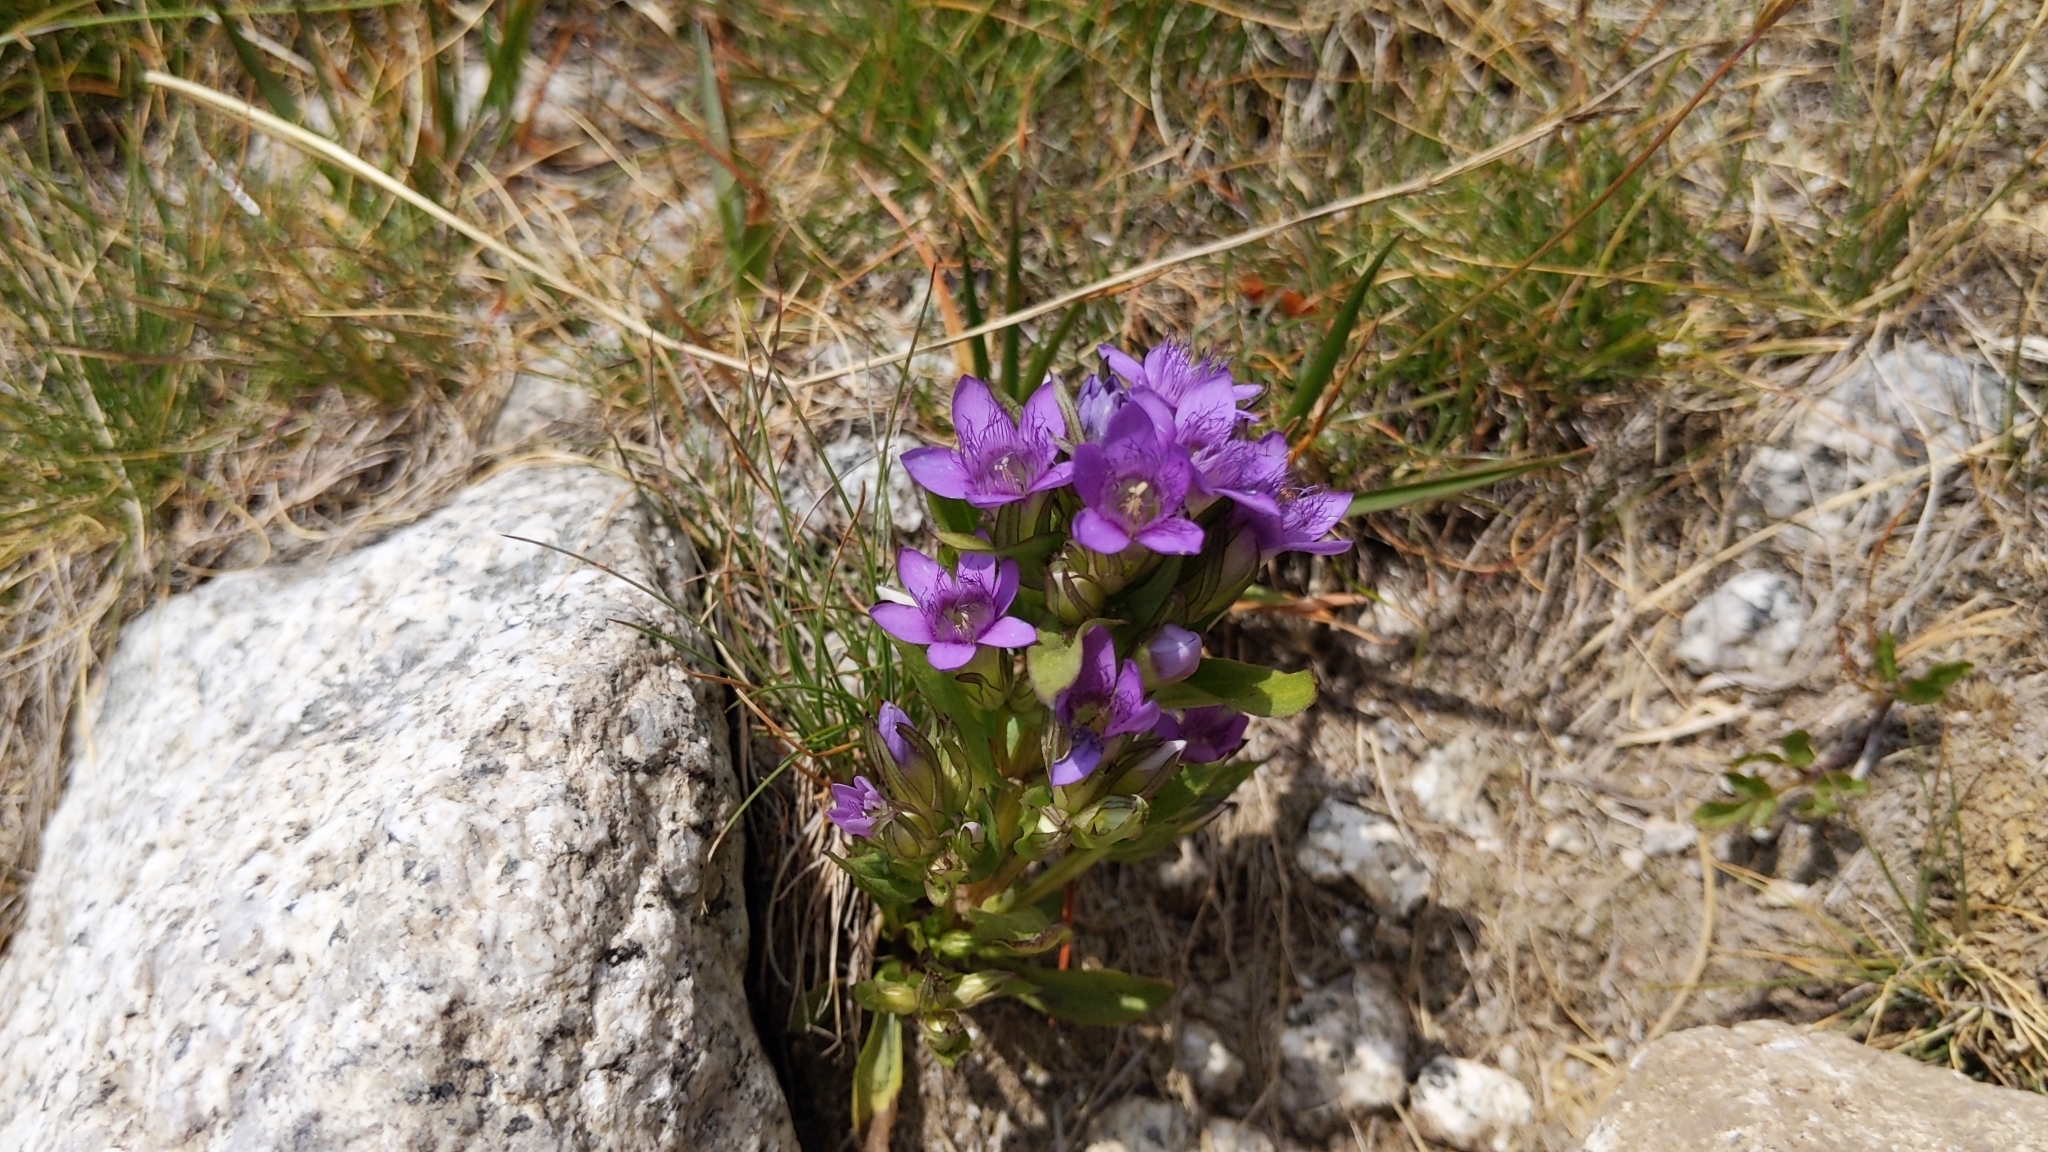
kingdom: Plantae
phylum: Tracheophyta
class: Magnoliopsida
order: Gentianales
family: Gentianaceae
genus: Gentianella
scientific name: Gentianella ramosa
